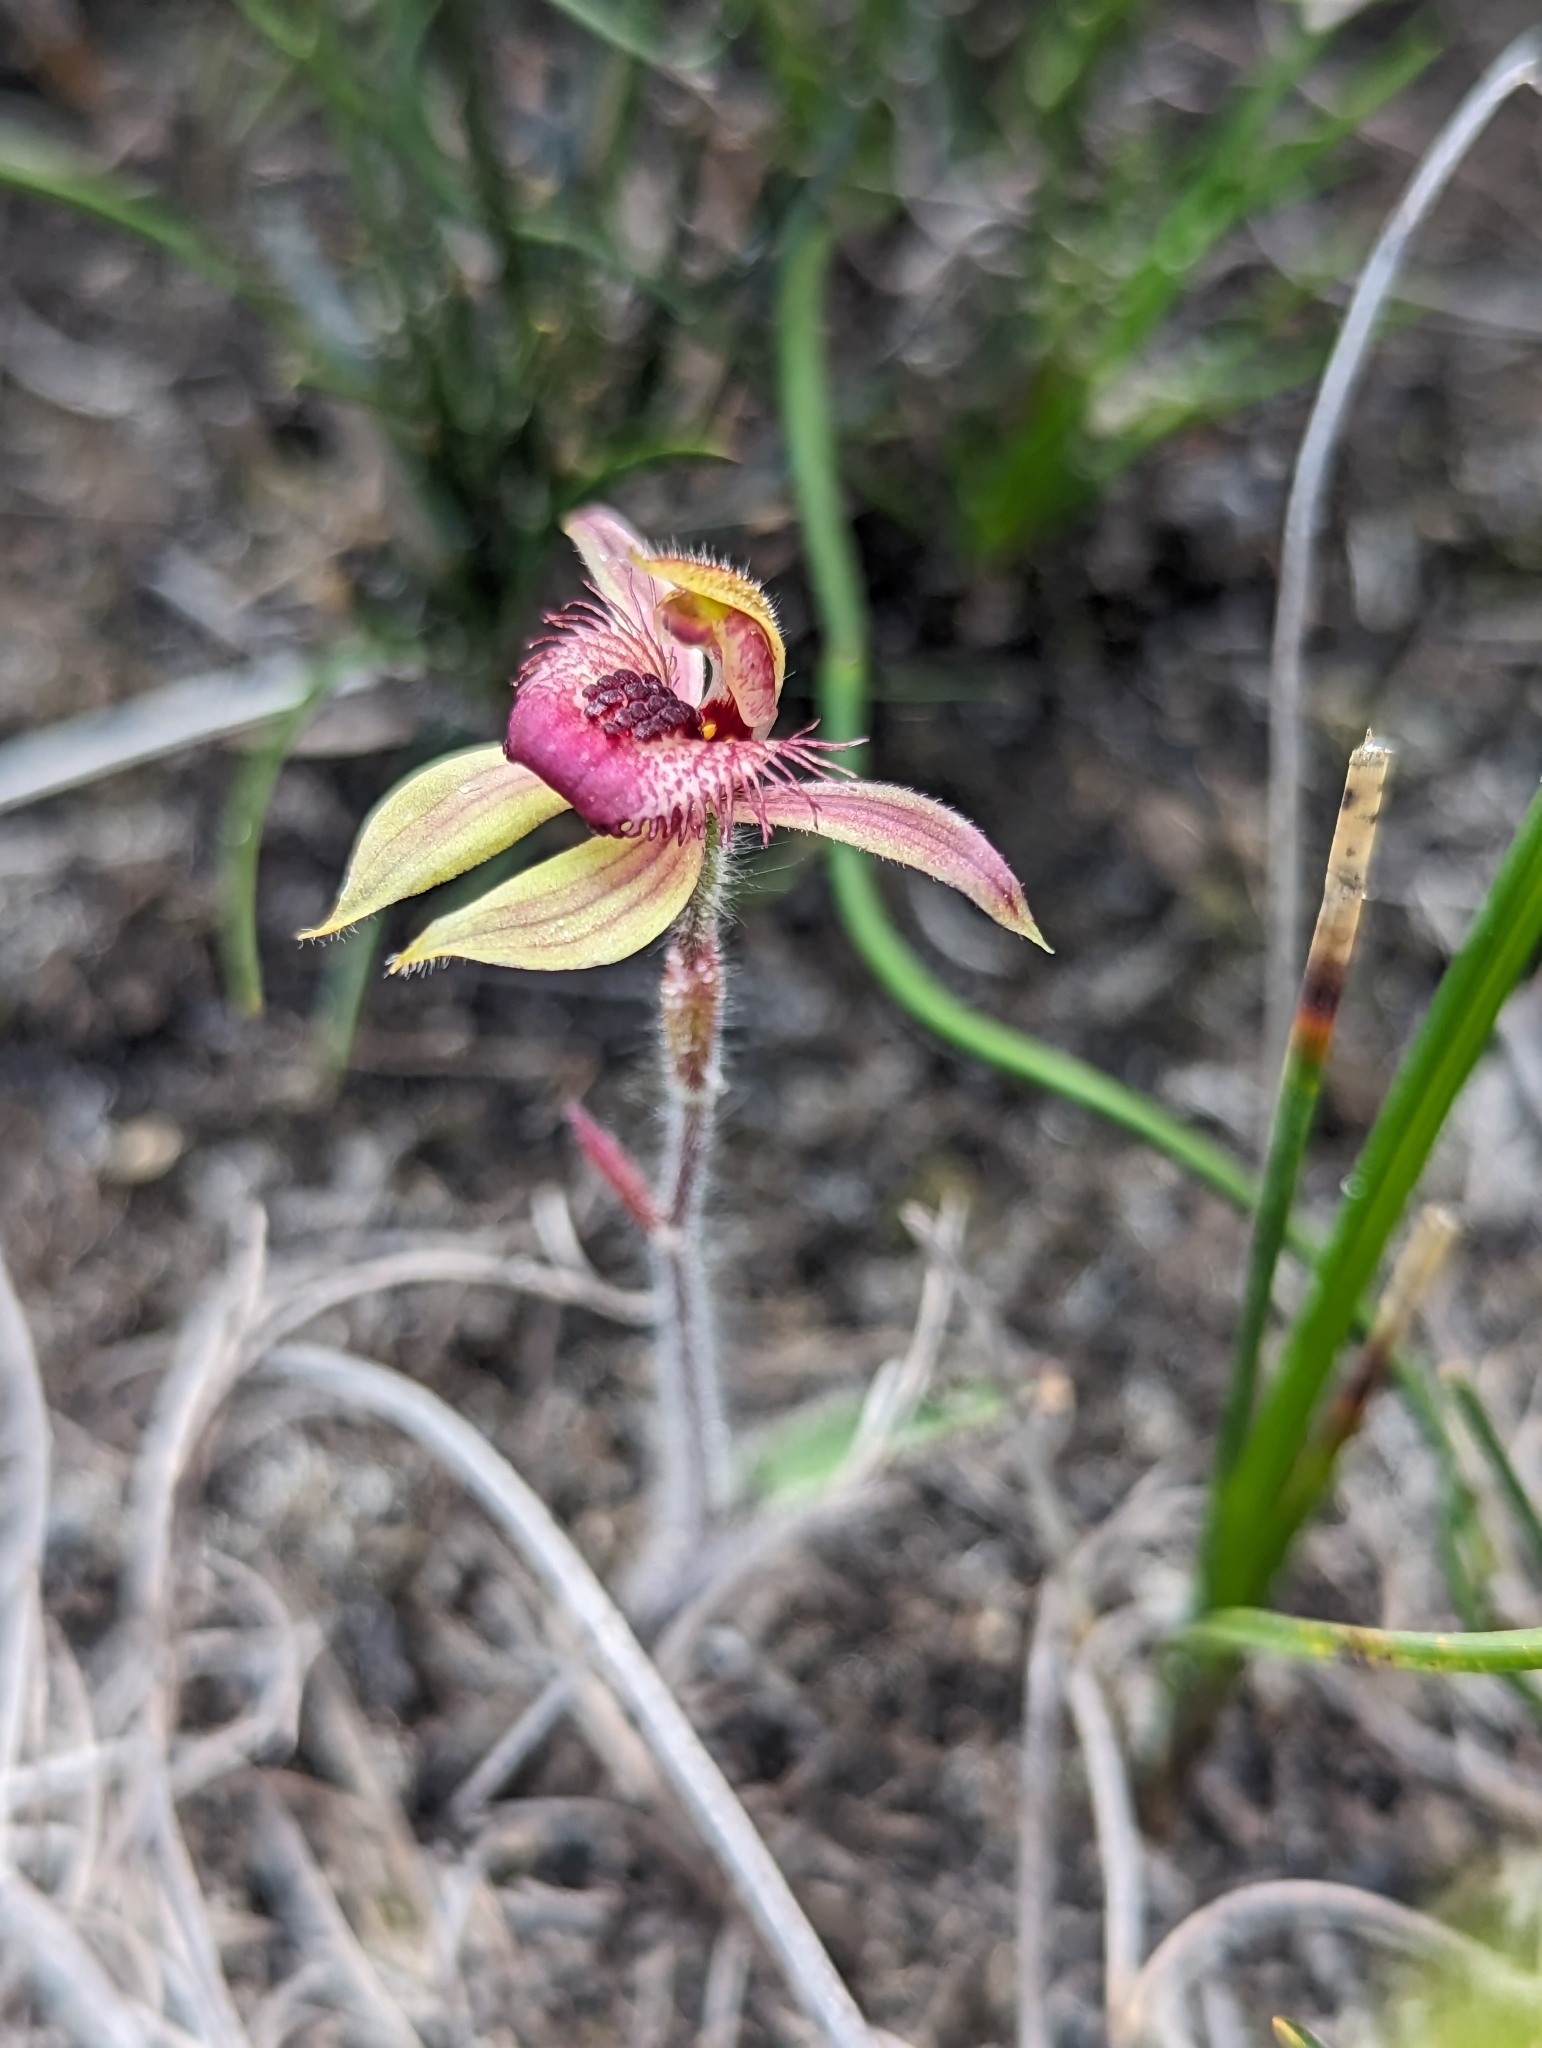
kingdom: Plantae
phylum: Tracheophyta
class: Liliopsida
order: Asparagales
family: Orchidaceae
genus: Caladenia
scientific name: Caladenia discoidea
